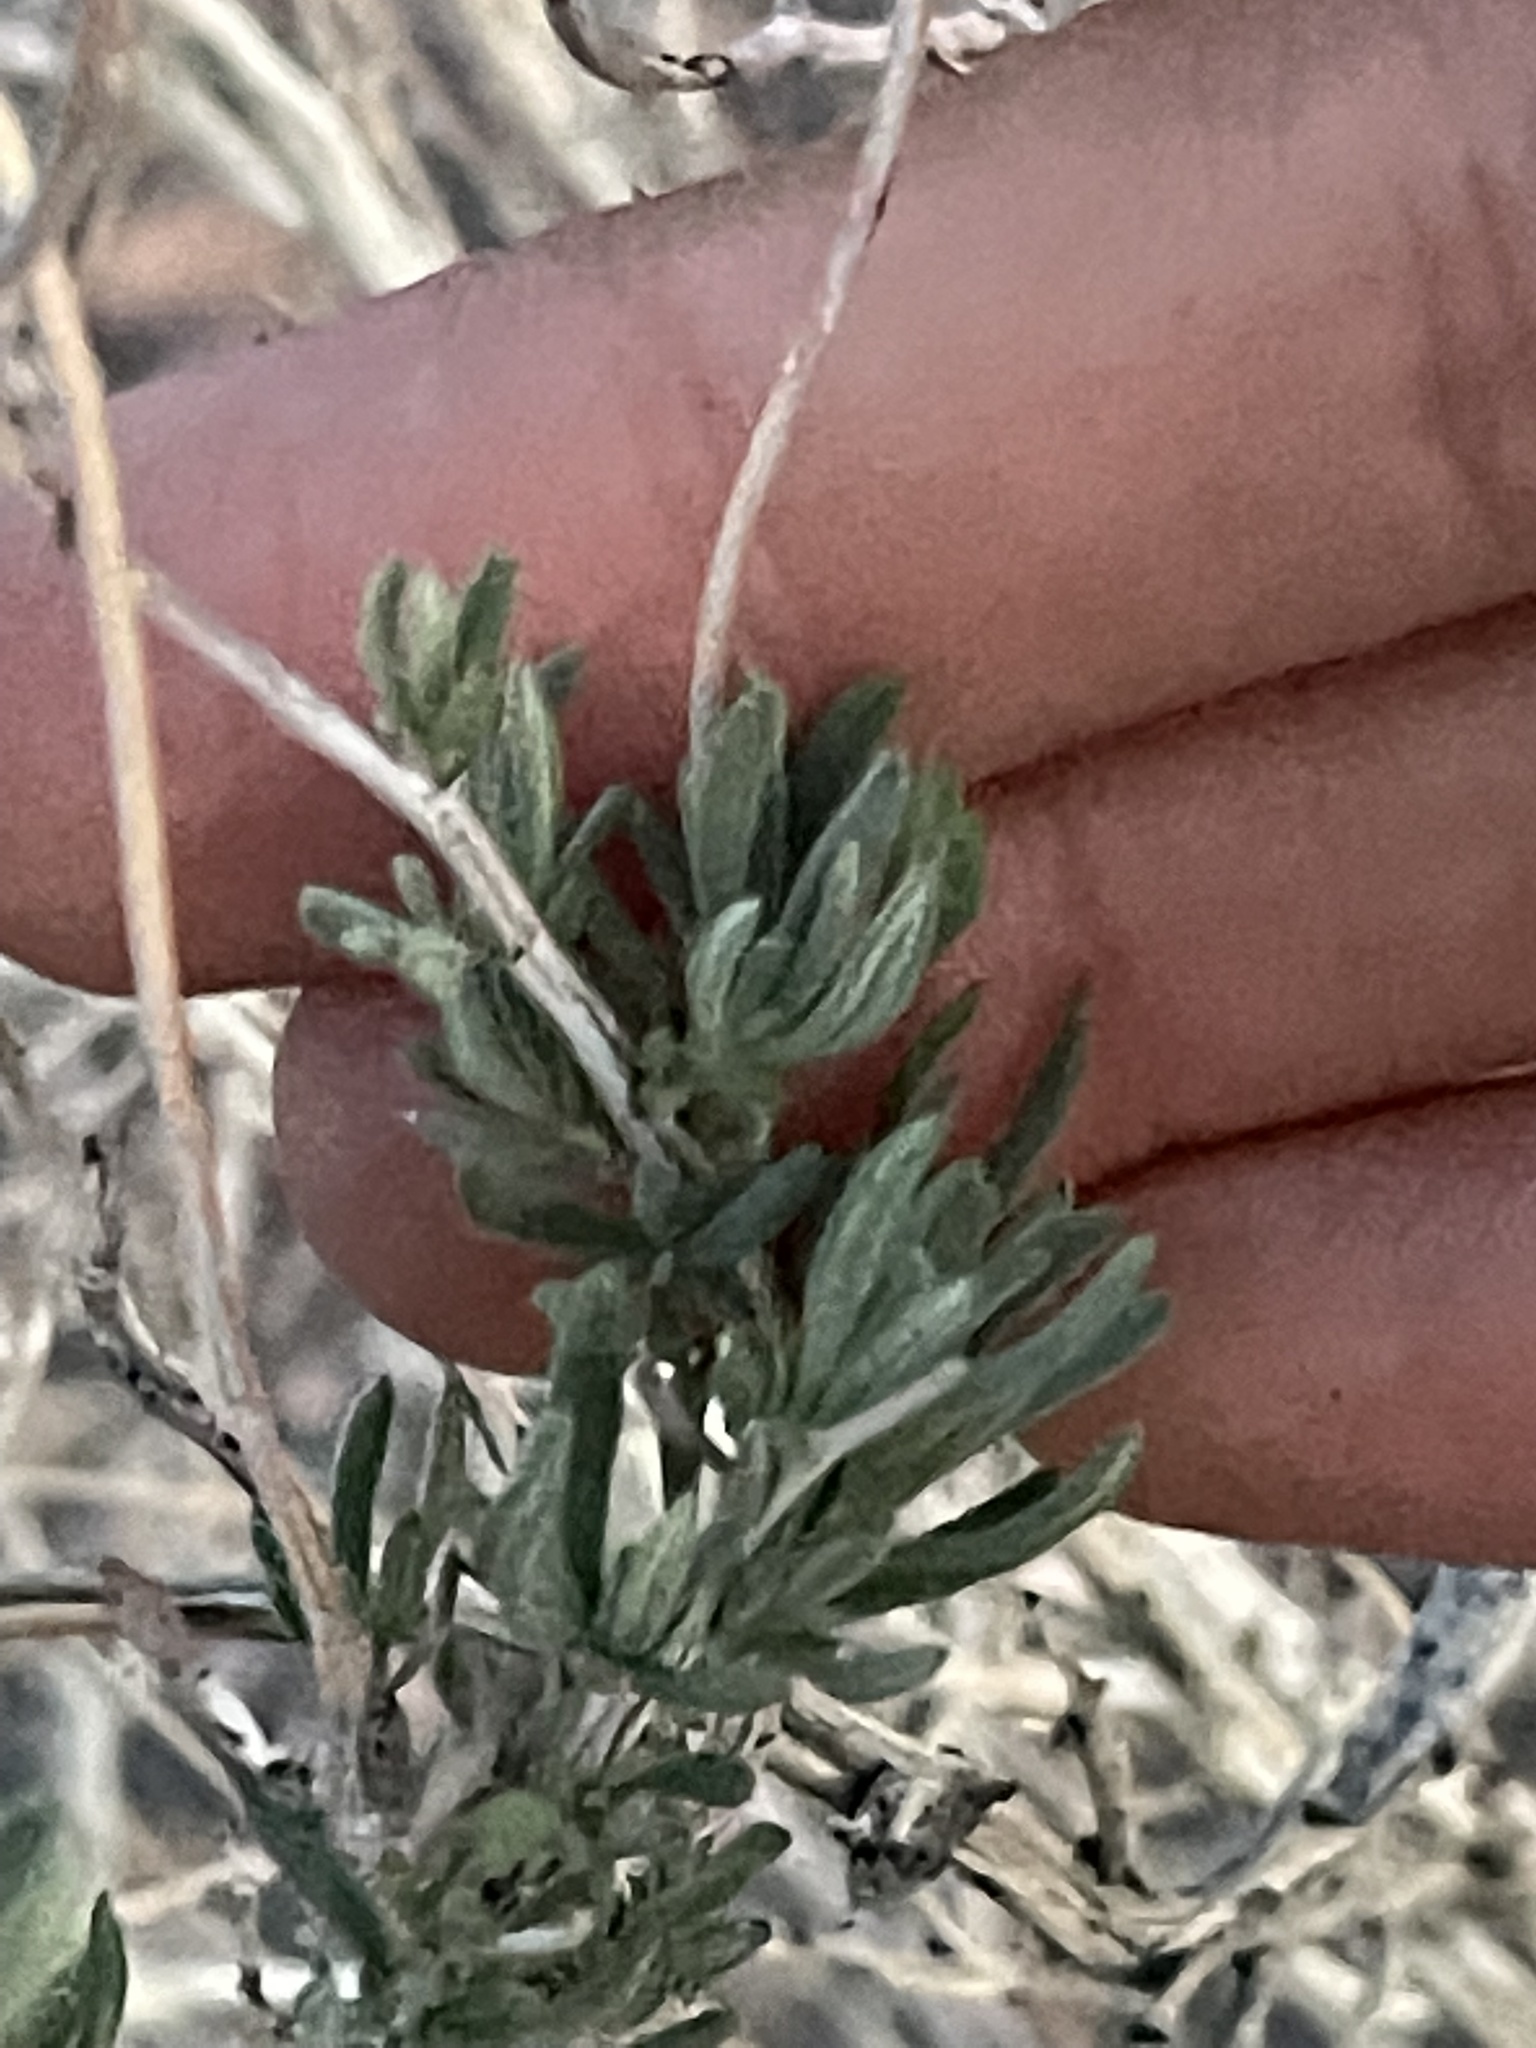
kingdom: Plantae
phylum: Tracheophyta
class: Magnoliopsida
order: Caryophyllales
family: Polygonaceae
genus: Eriogonum
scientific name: Eriogonum fasciculatum
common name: California wild buckwheat
